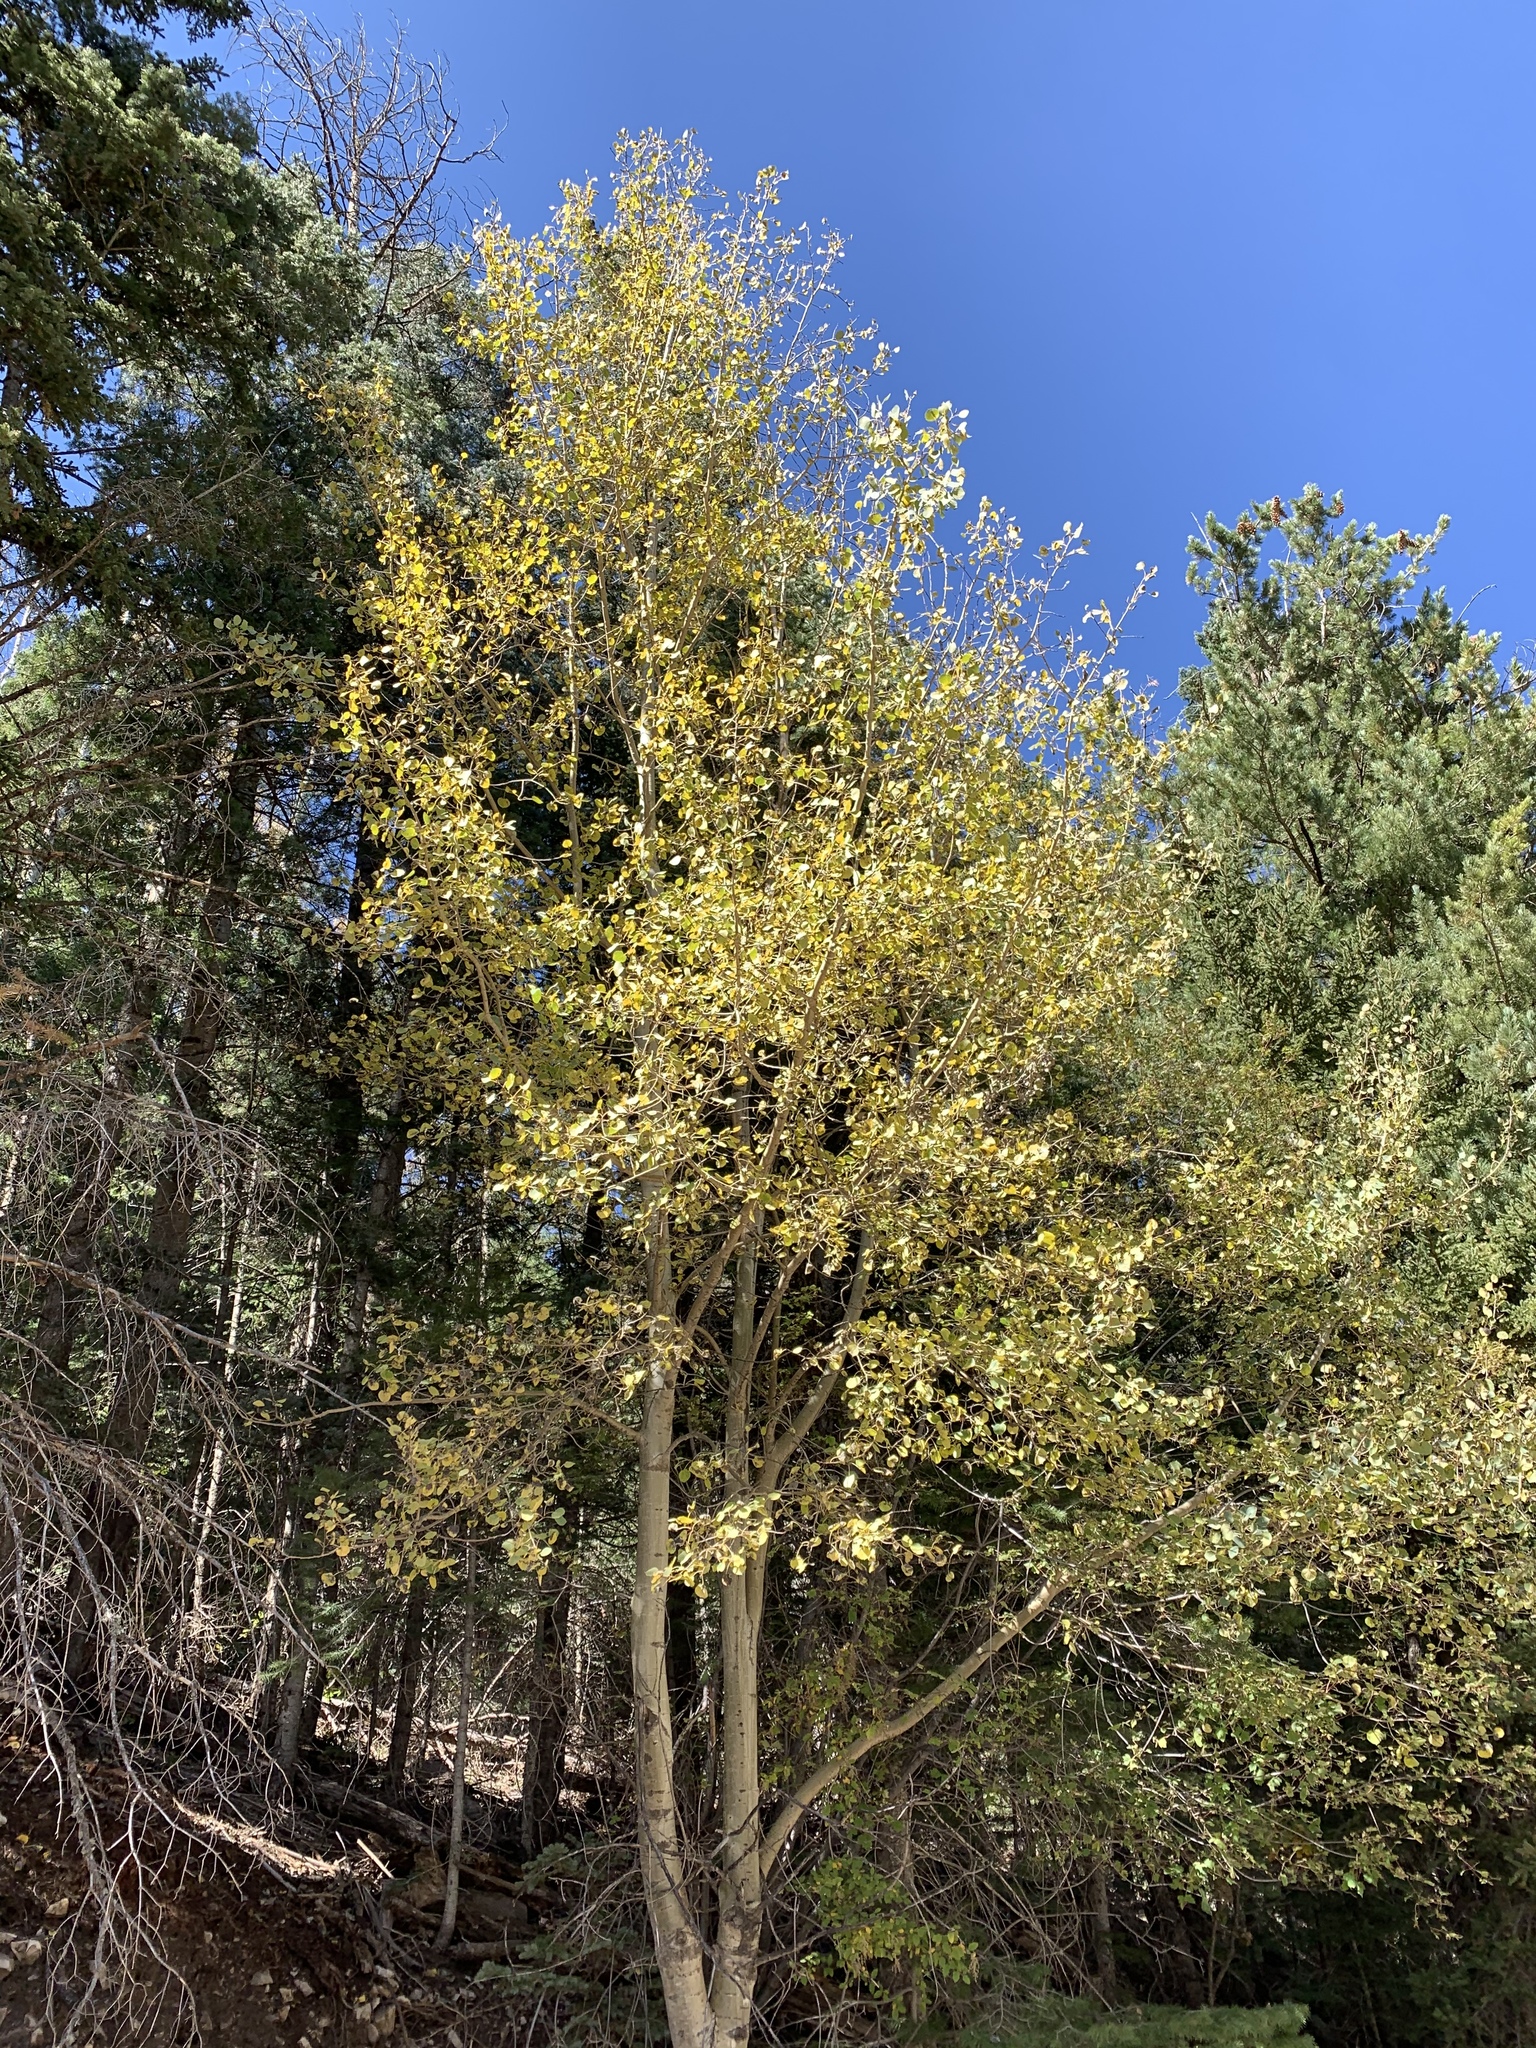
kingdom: Plantae
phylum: Tracheophyta
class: Magnoliopsida
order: Malpighiales
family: Salicaceae
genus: Populus
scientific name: Populus tremuloides
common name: Quaking aspen
